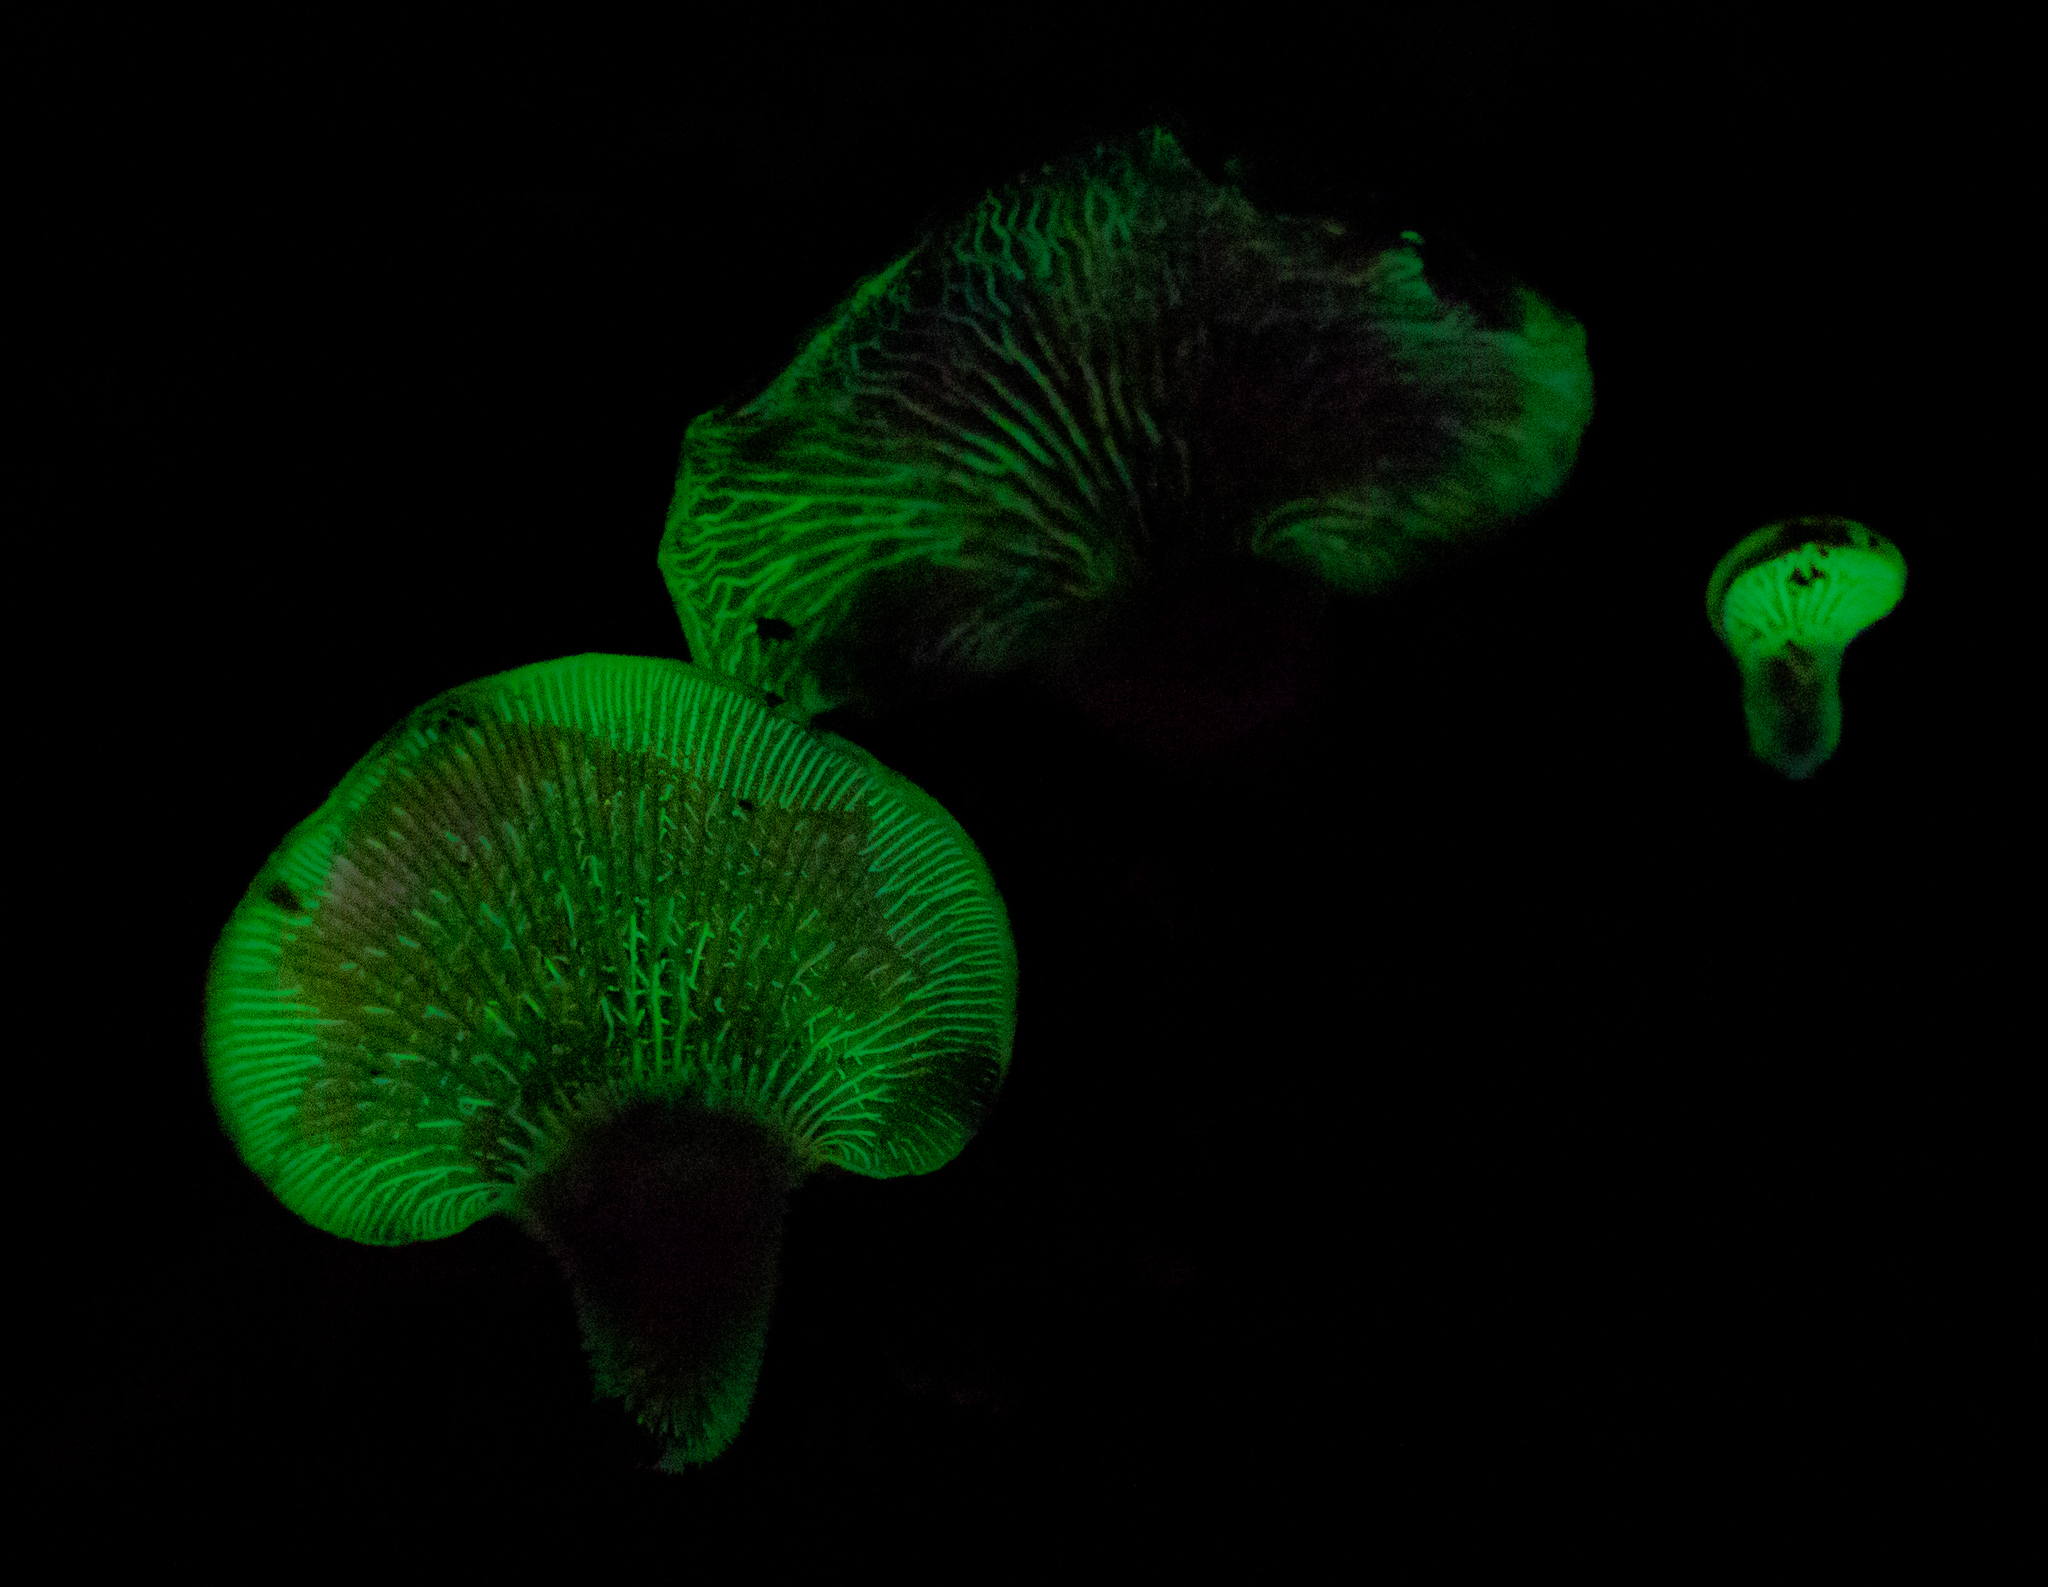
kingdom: Fungi
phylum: Basidiomycota
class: Agaricomycetes
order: Agaricales
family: Mycenaceae
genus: Panellus
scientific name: Panellus stipticus
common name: Bitter oysterling
